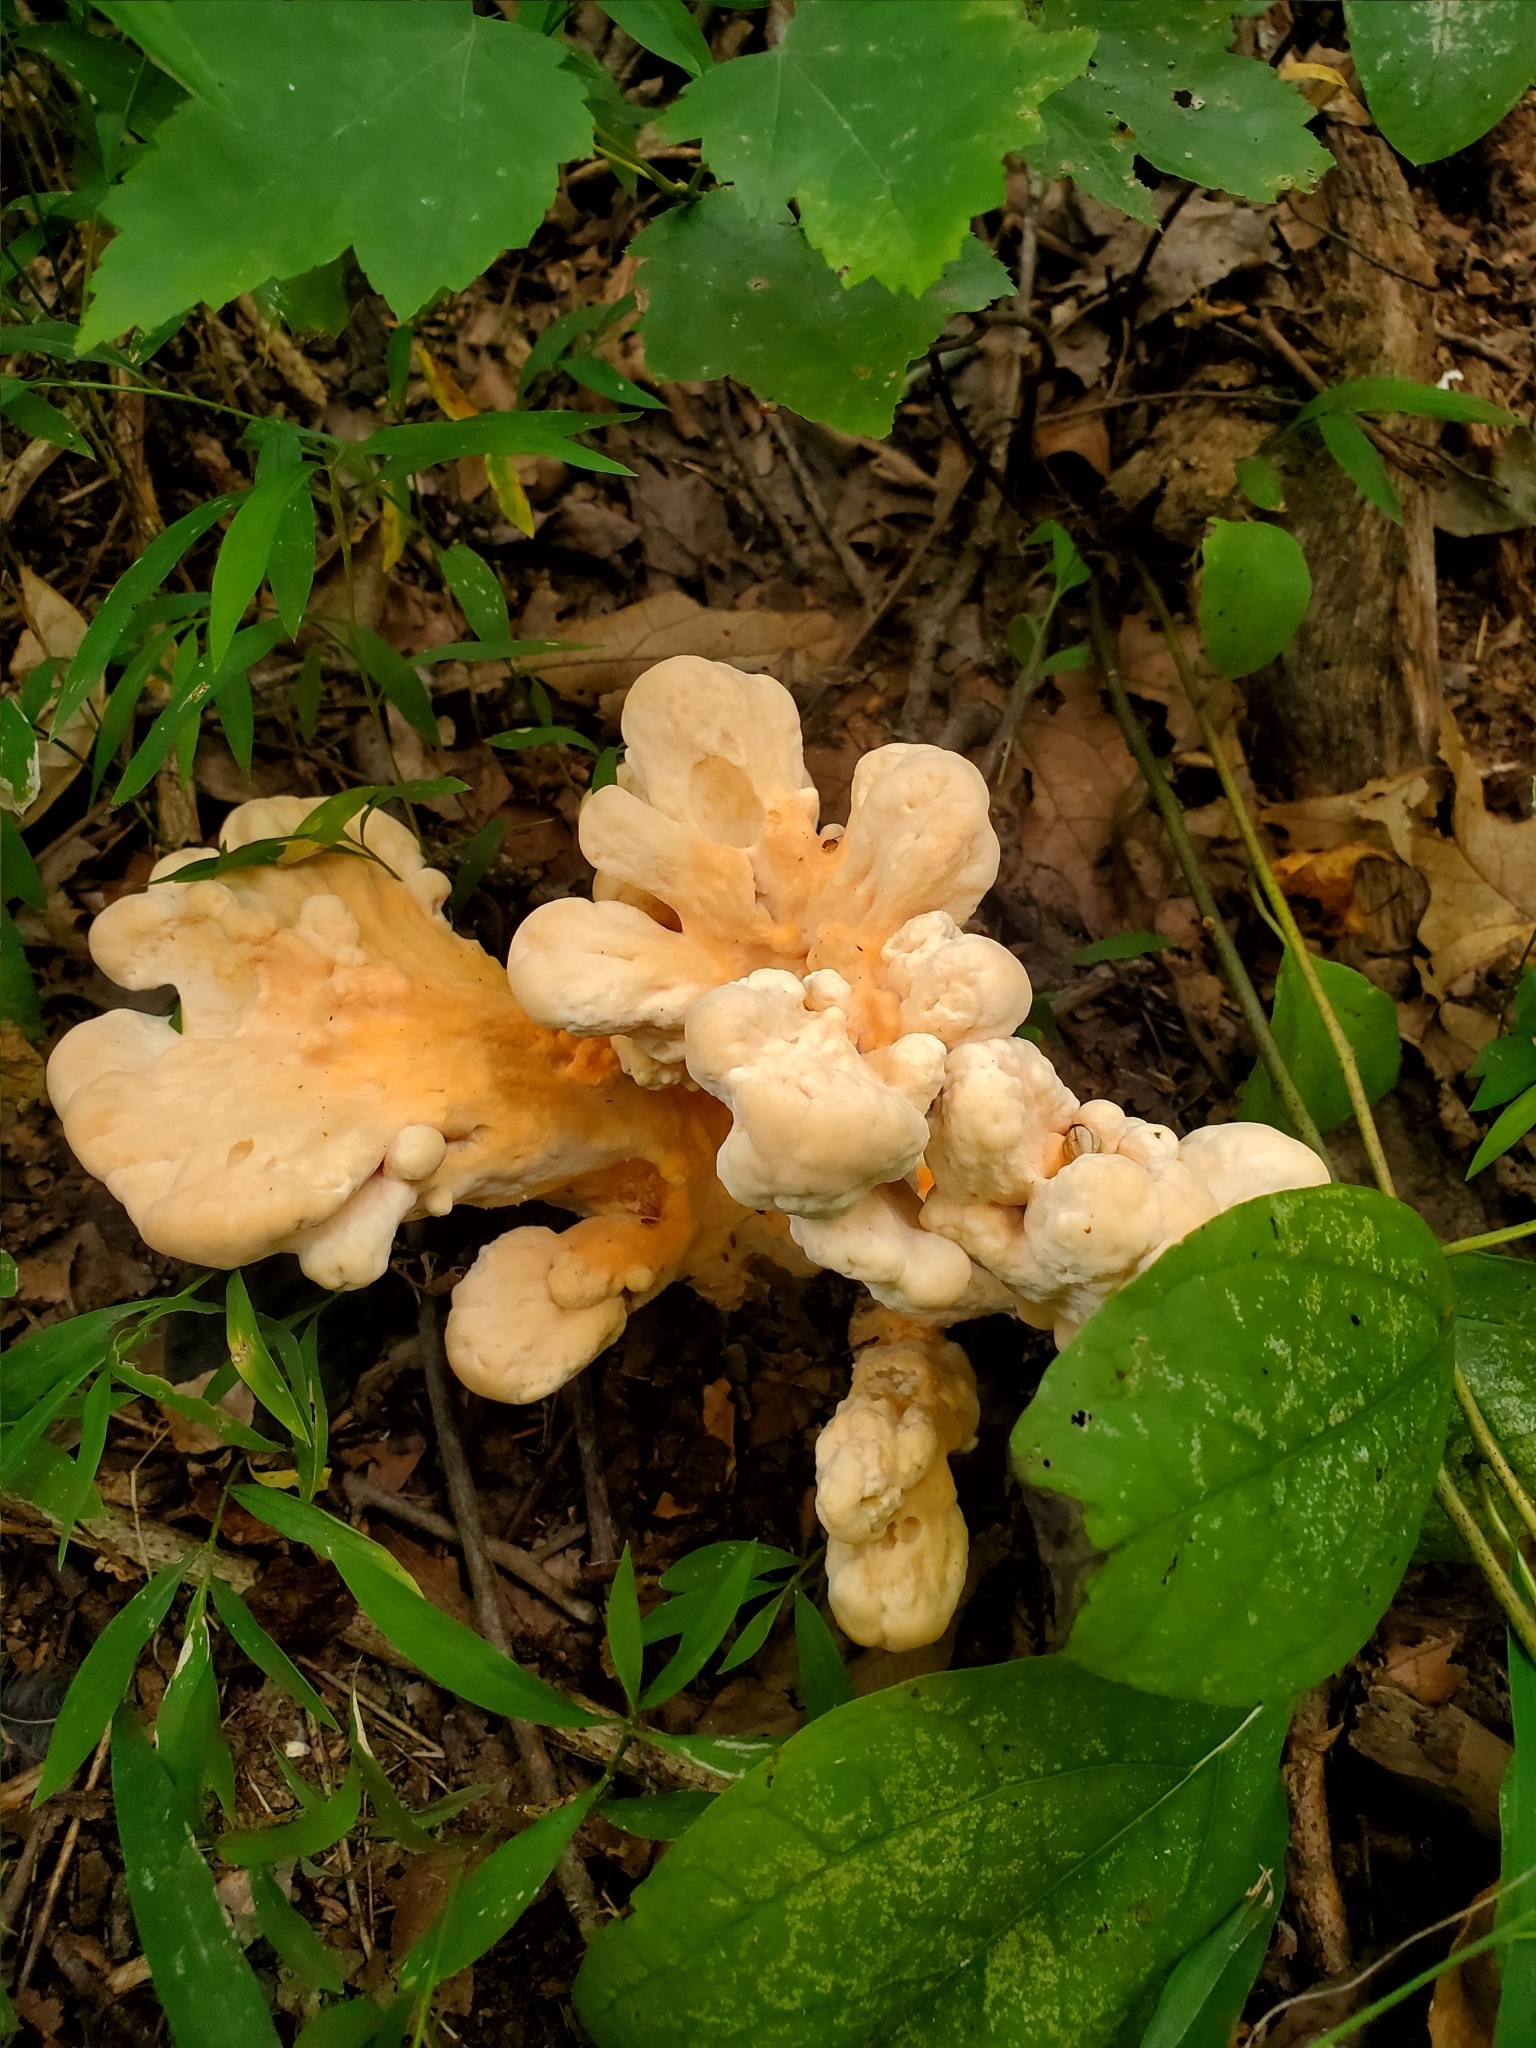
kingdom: Fungi
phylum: Basidiomycota
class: Agaricomycetes
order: Polyporales
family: Laetiporaceae
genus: Laetiporus
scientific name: Laetiporus sulphureus
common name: Chicken of the woods
